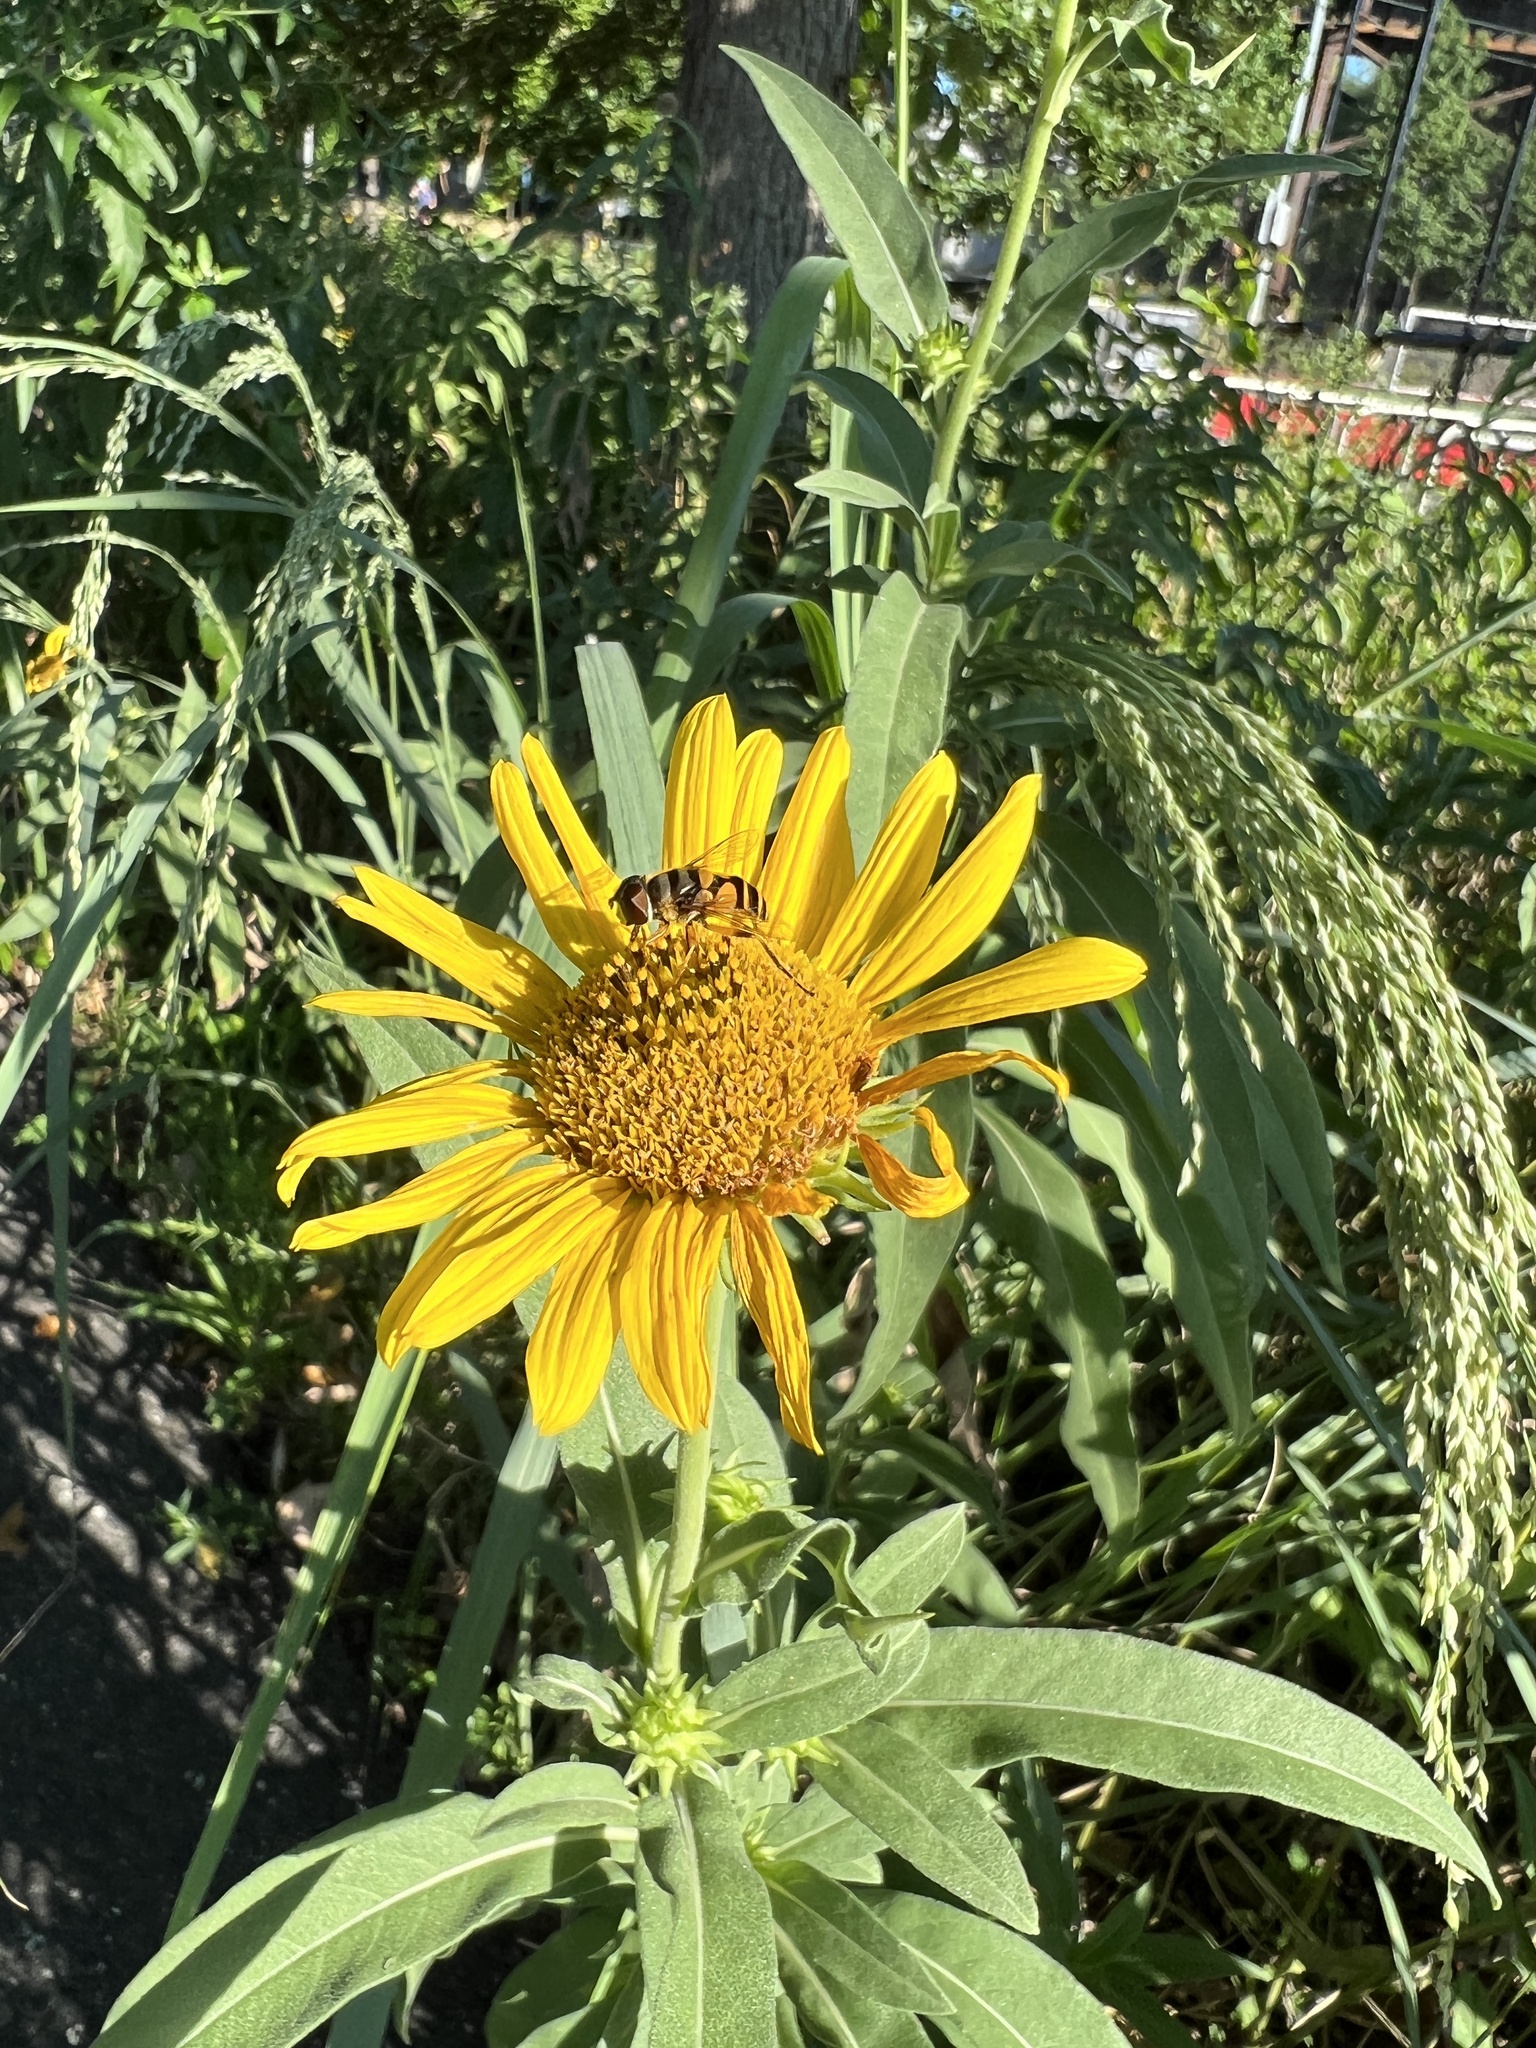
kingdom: Animalia
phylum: Arthropoda
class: Insecta
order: Diptera
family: Syrphidae
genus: Eristalis
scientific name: Eristalis transversa
